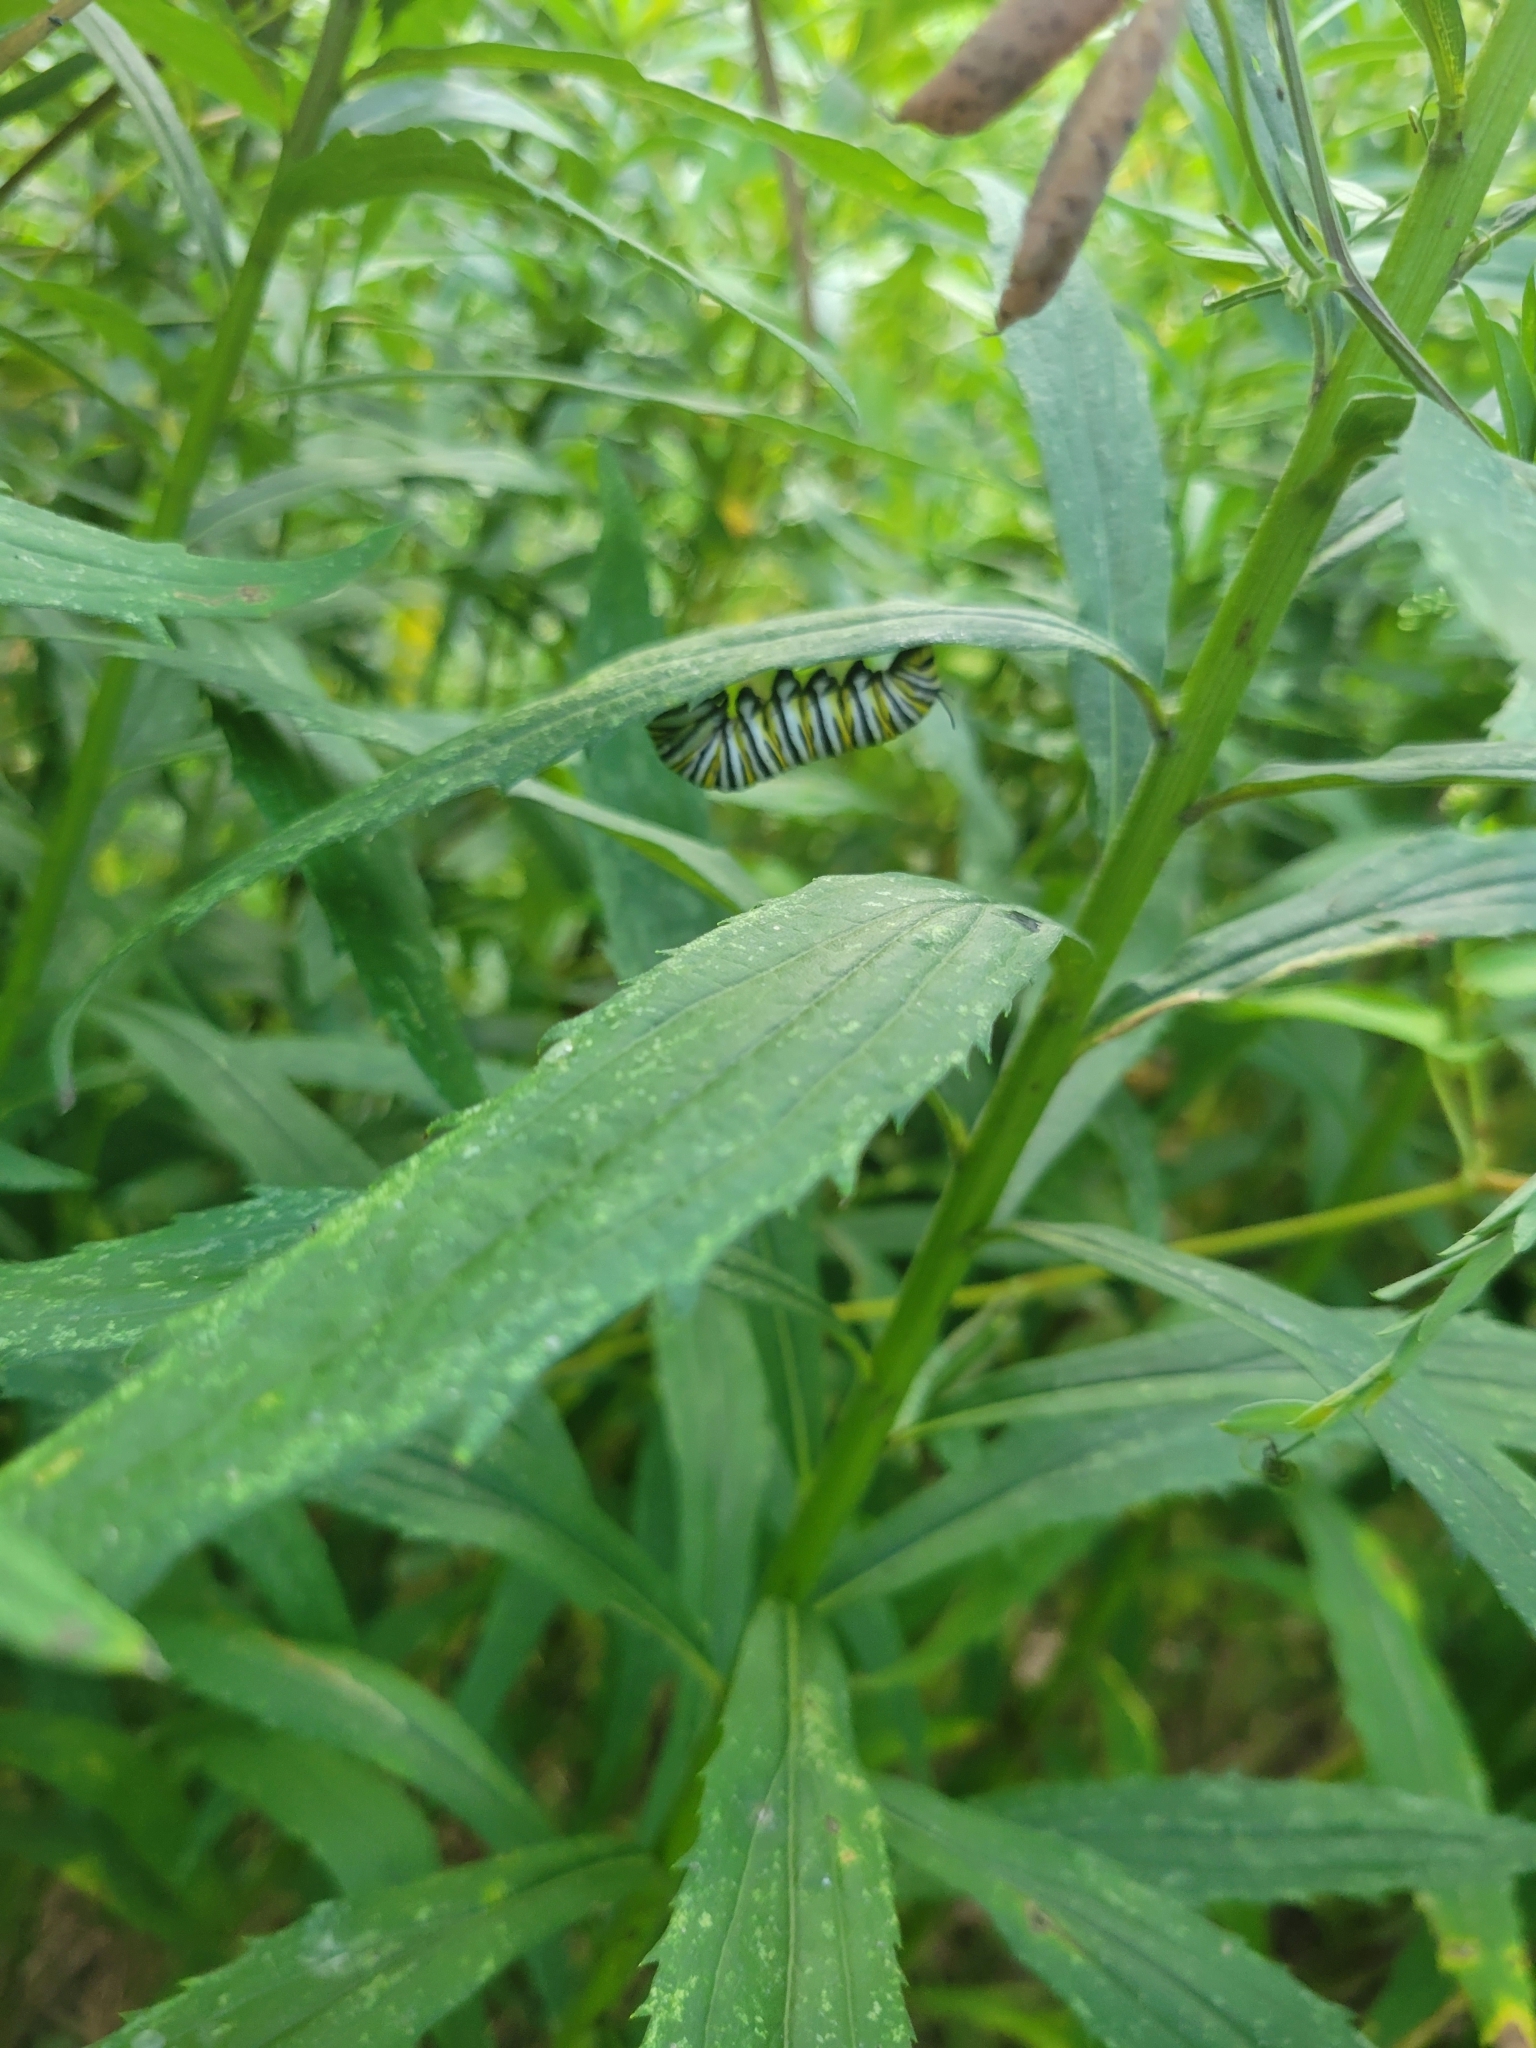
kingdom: Animalia
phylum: Arthropoda
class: Insecta
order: Lepidoptera
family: Nymphalidae
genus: Danaus
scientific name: Danaus plexippus
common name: Monarch
